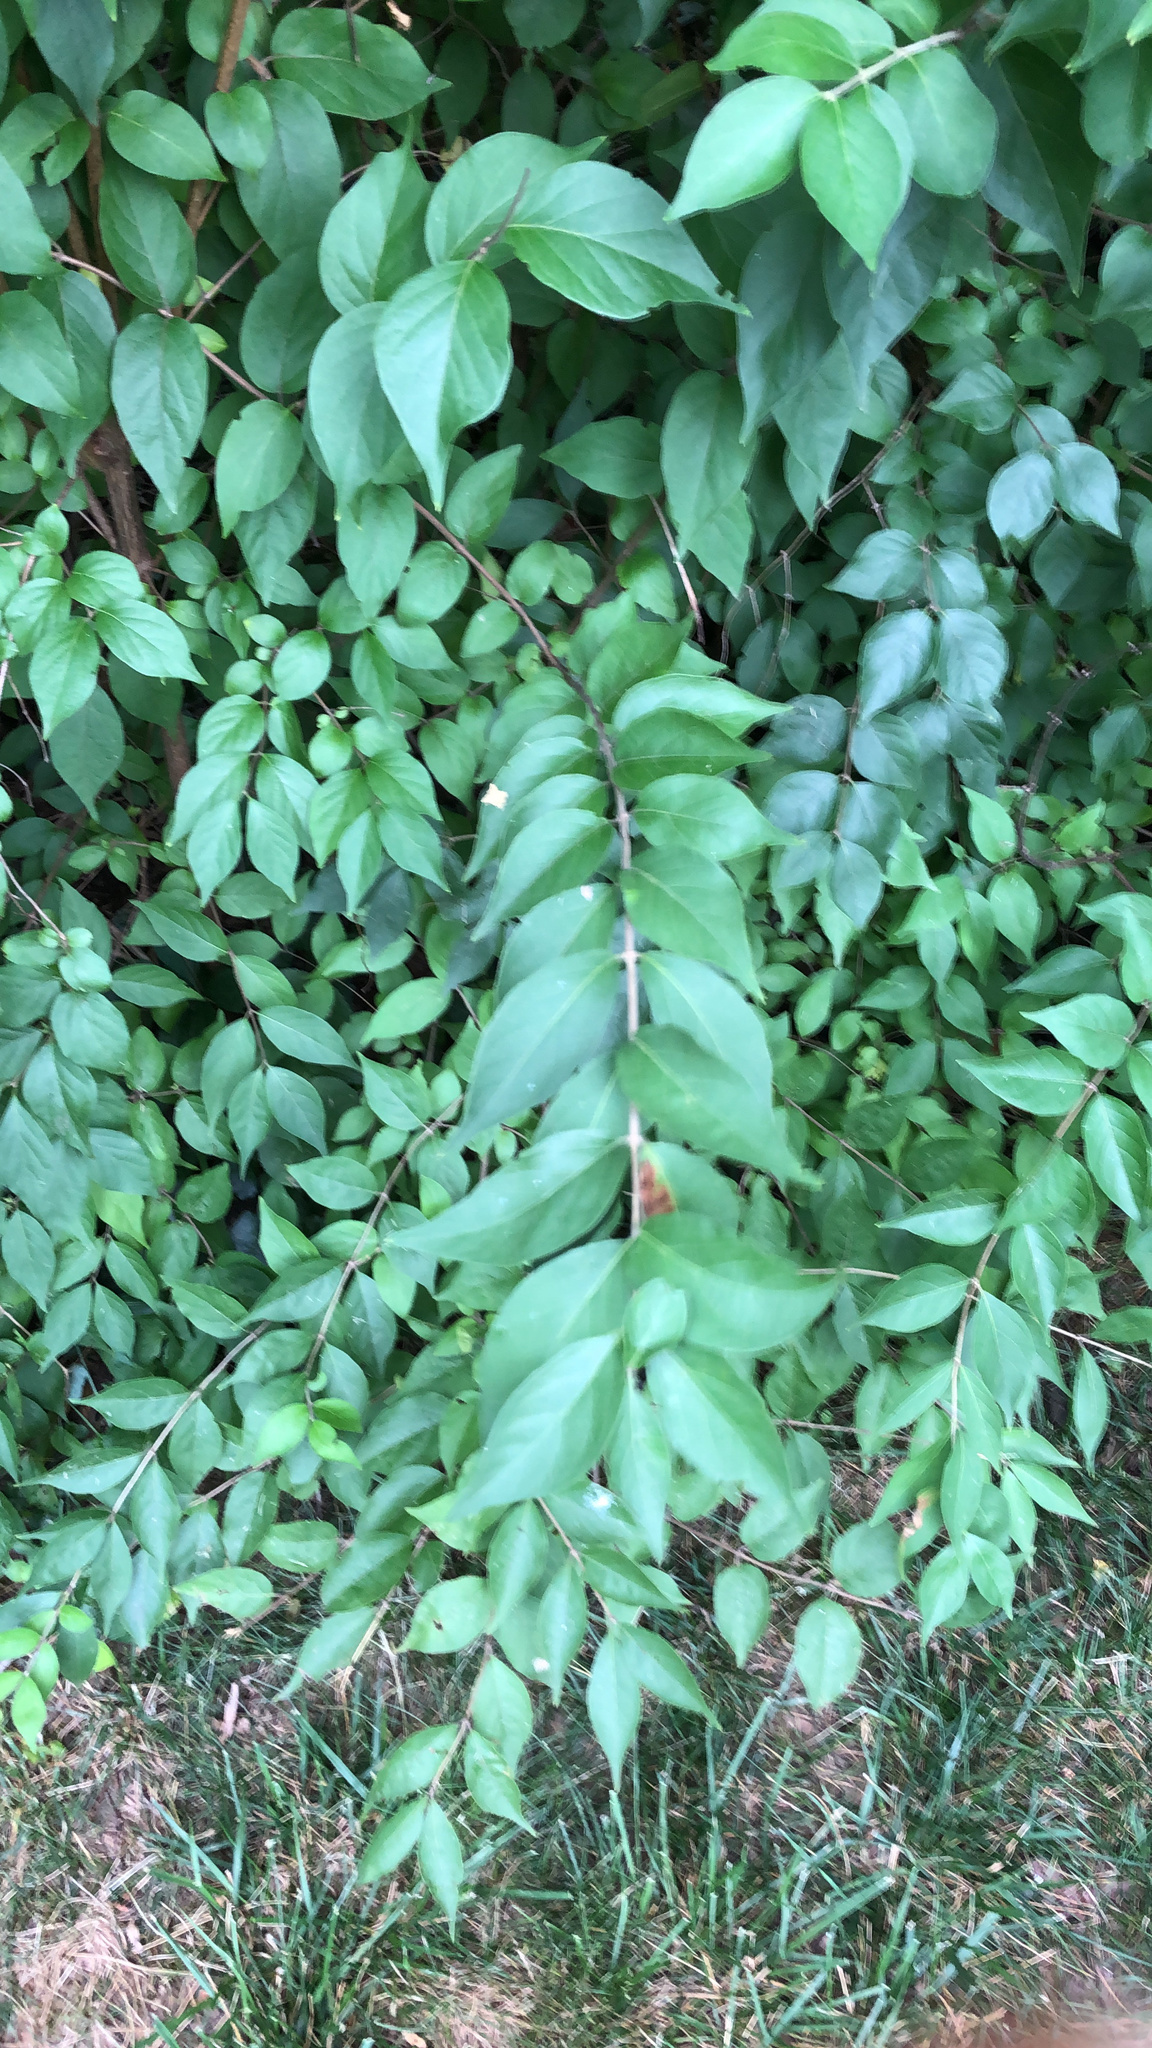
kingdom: Plantae
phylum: Tracheophyta
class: Magnoliopsida
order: Dipsacales
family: Caprifoliaceae
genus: Lonicera
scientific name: Lonicera maackii
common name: Amur honeysuckle
